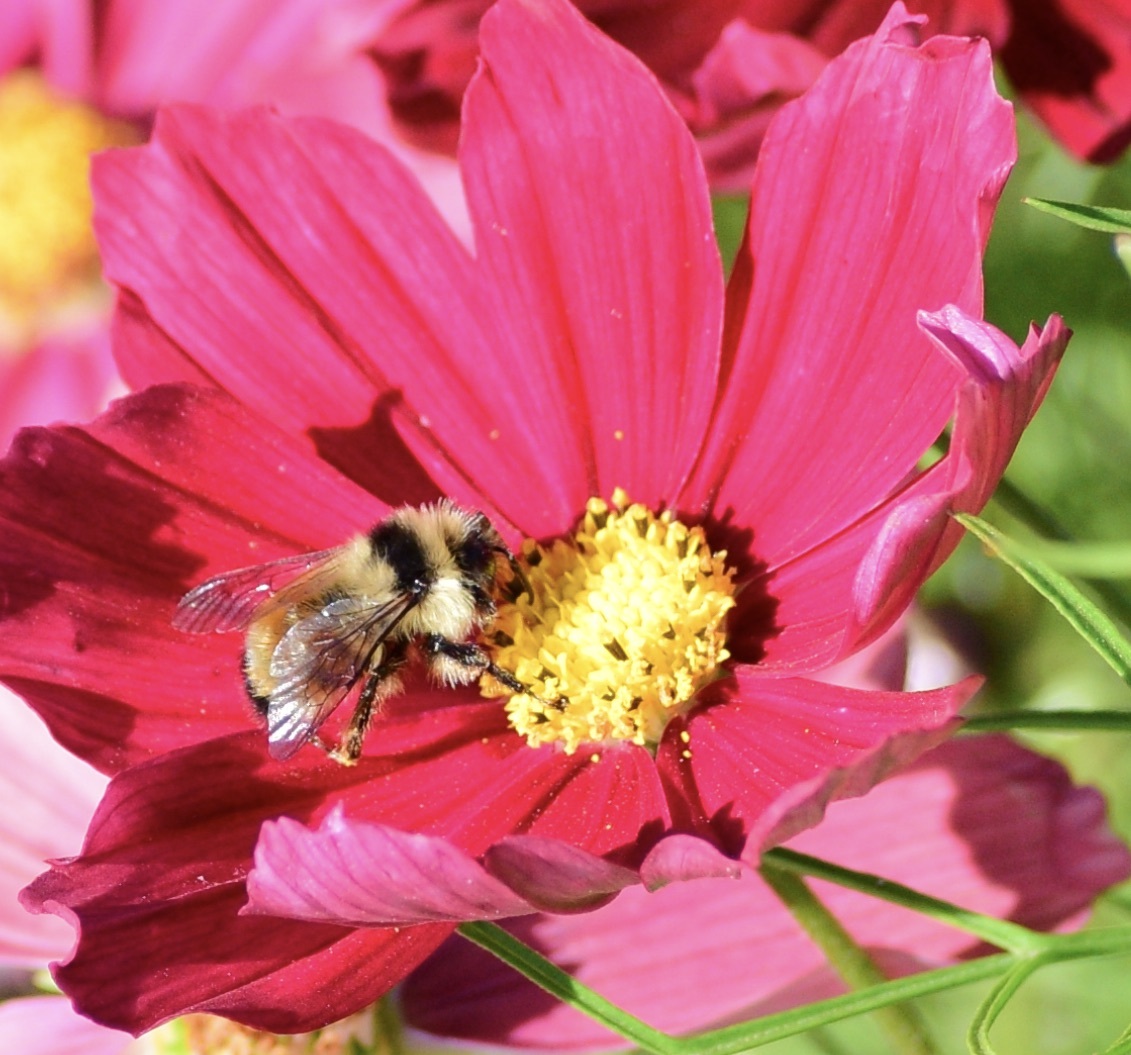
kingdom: Animalia
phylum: Arthropoda
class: Insecta
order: Hymenoptera
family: Apidae
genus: Bombus
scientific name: Bombus ternarius
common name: Tri-colored bumble bee
